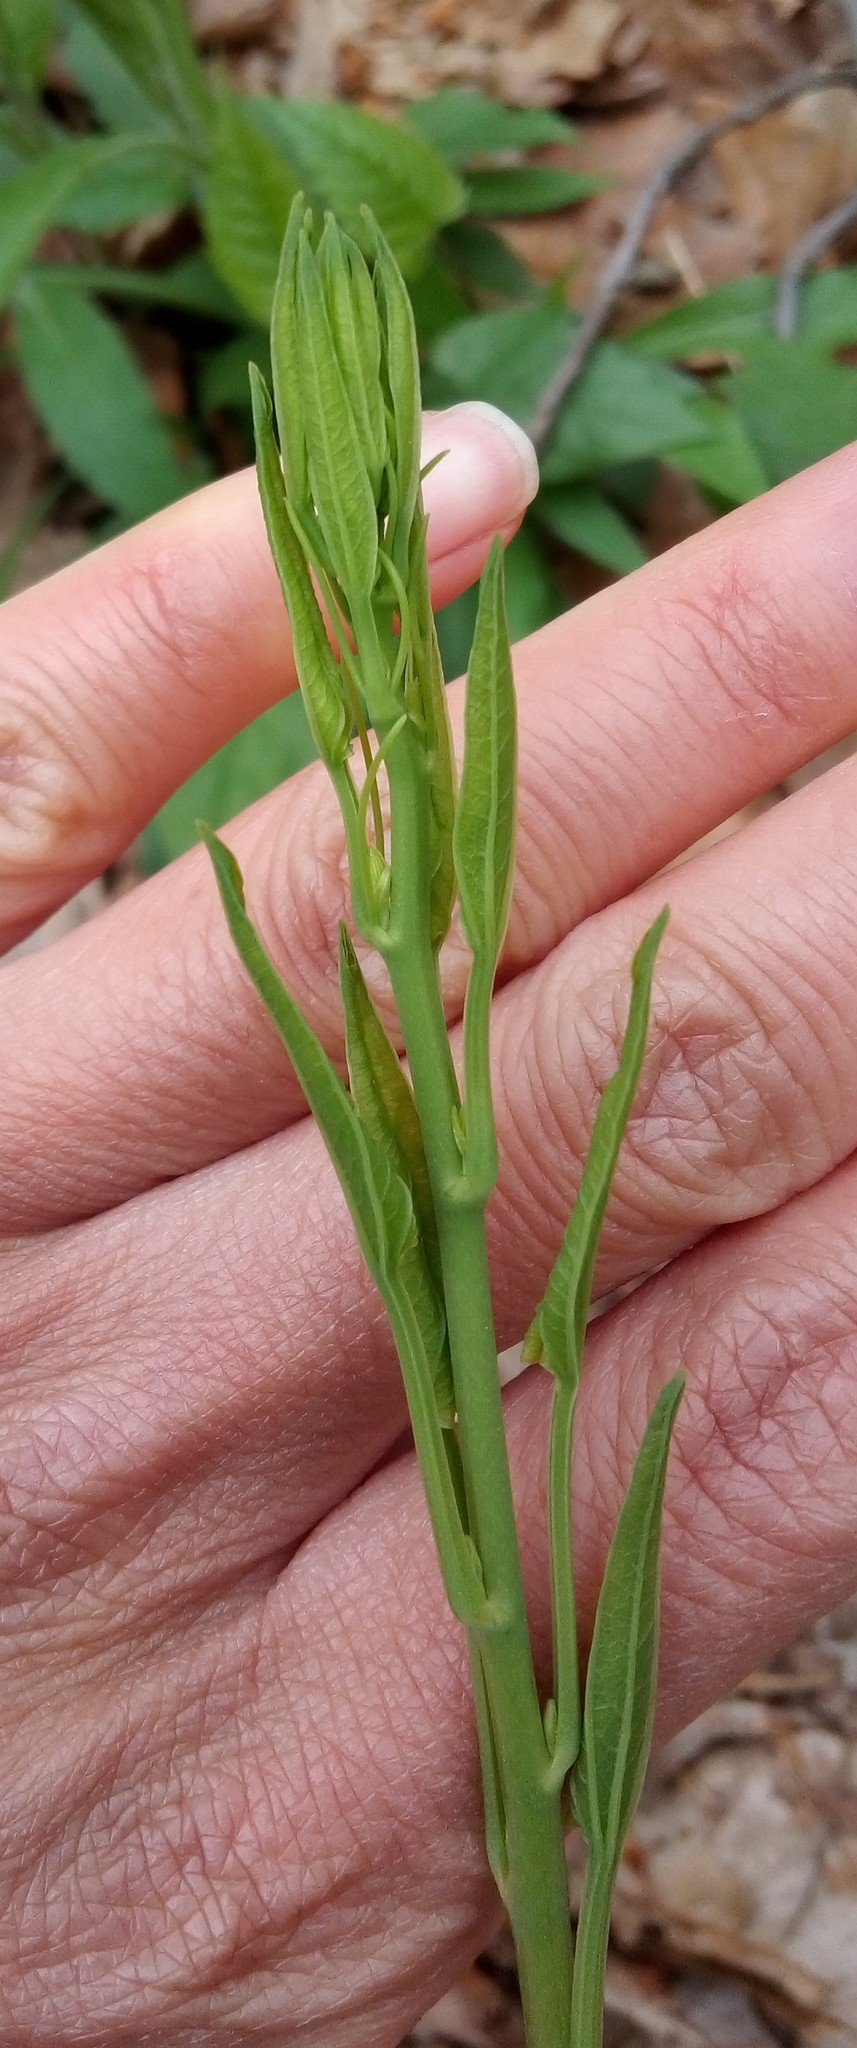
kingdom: Plantae
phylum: Tracheophyta
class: Liliopsida
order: Liliales
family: Smilacaceae
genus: Smilax
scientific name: Smilax herbacea
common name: Jacob's-ladder
